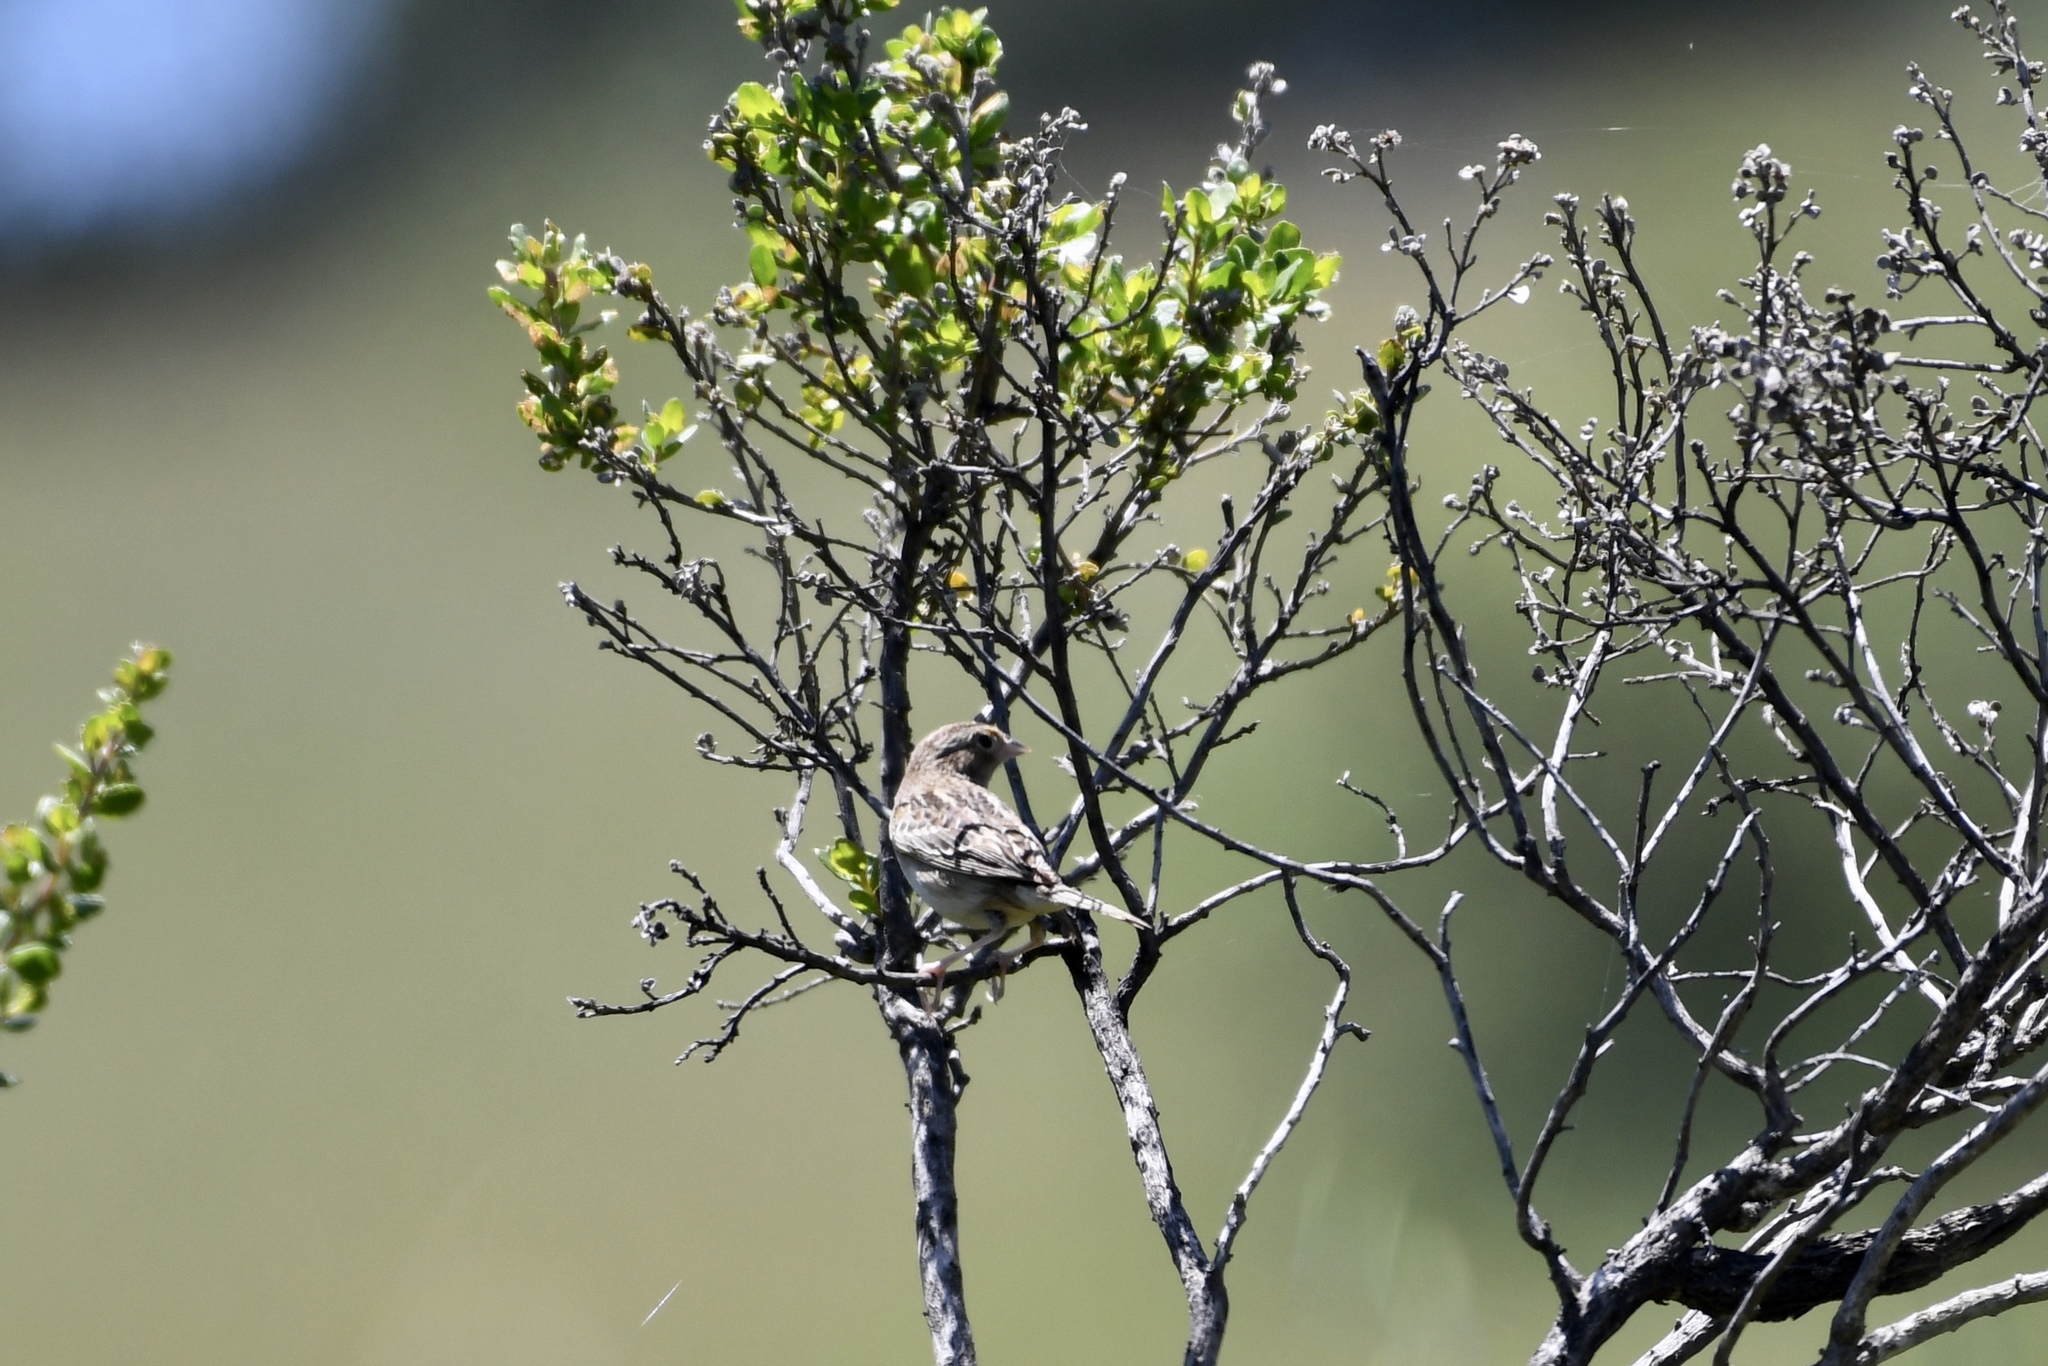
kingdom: Animalia
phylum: Chordata
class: Aves
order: Passeriformes
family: Passerellidae
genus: Ammodramus
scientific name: Ammodramus savannarum
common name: Grasshopper sparrow
